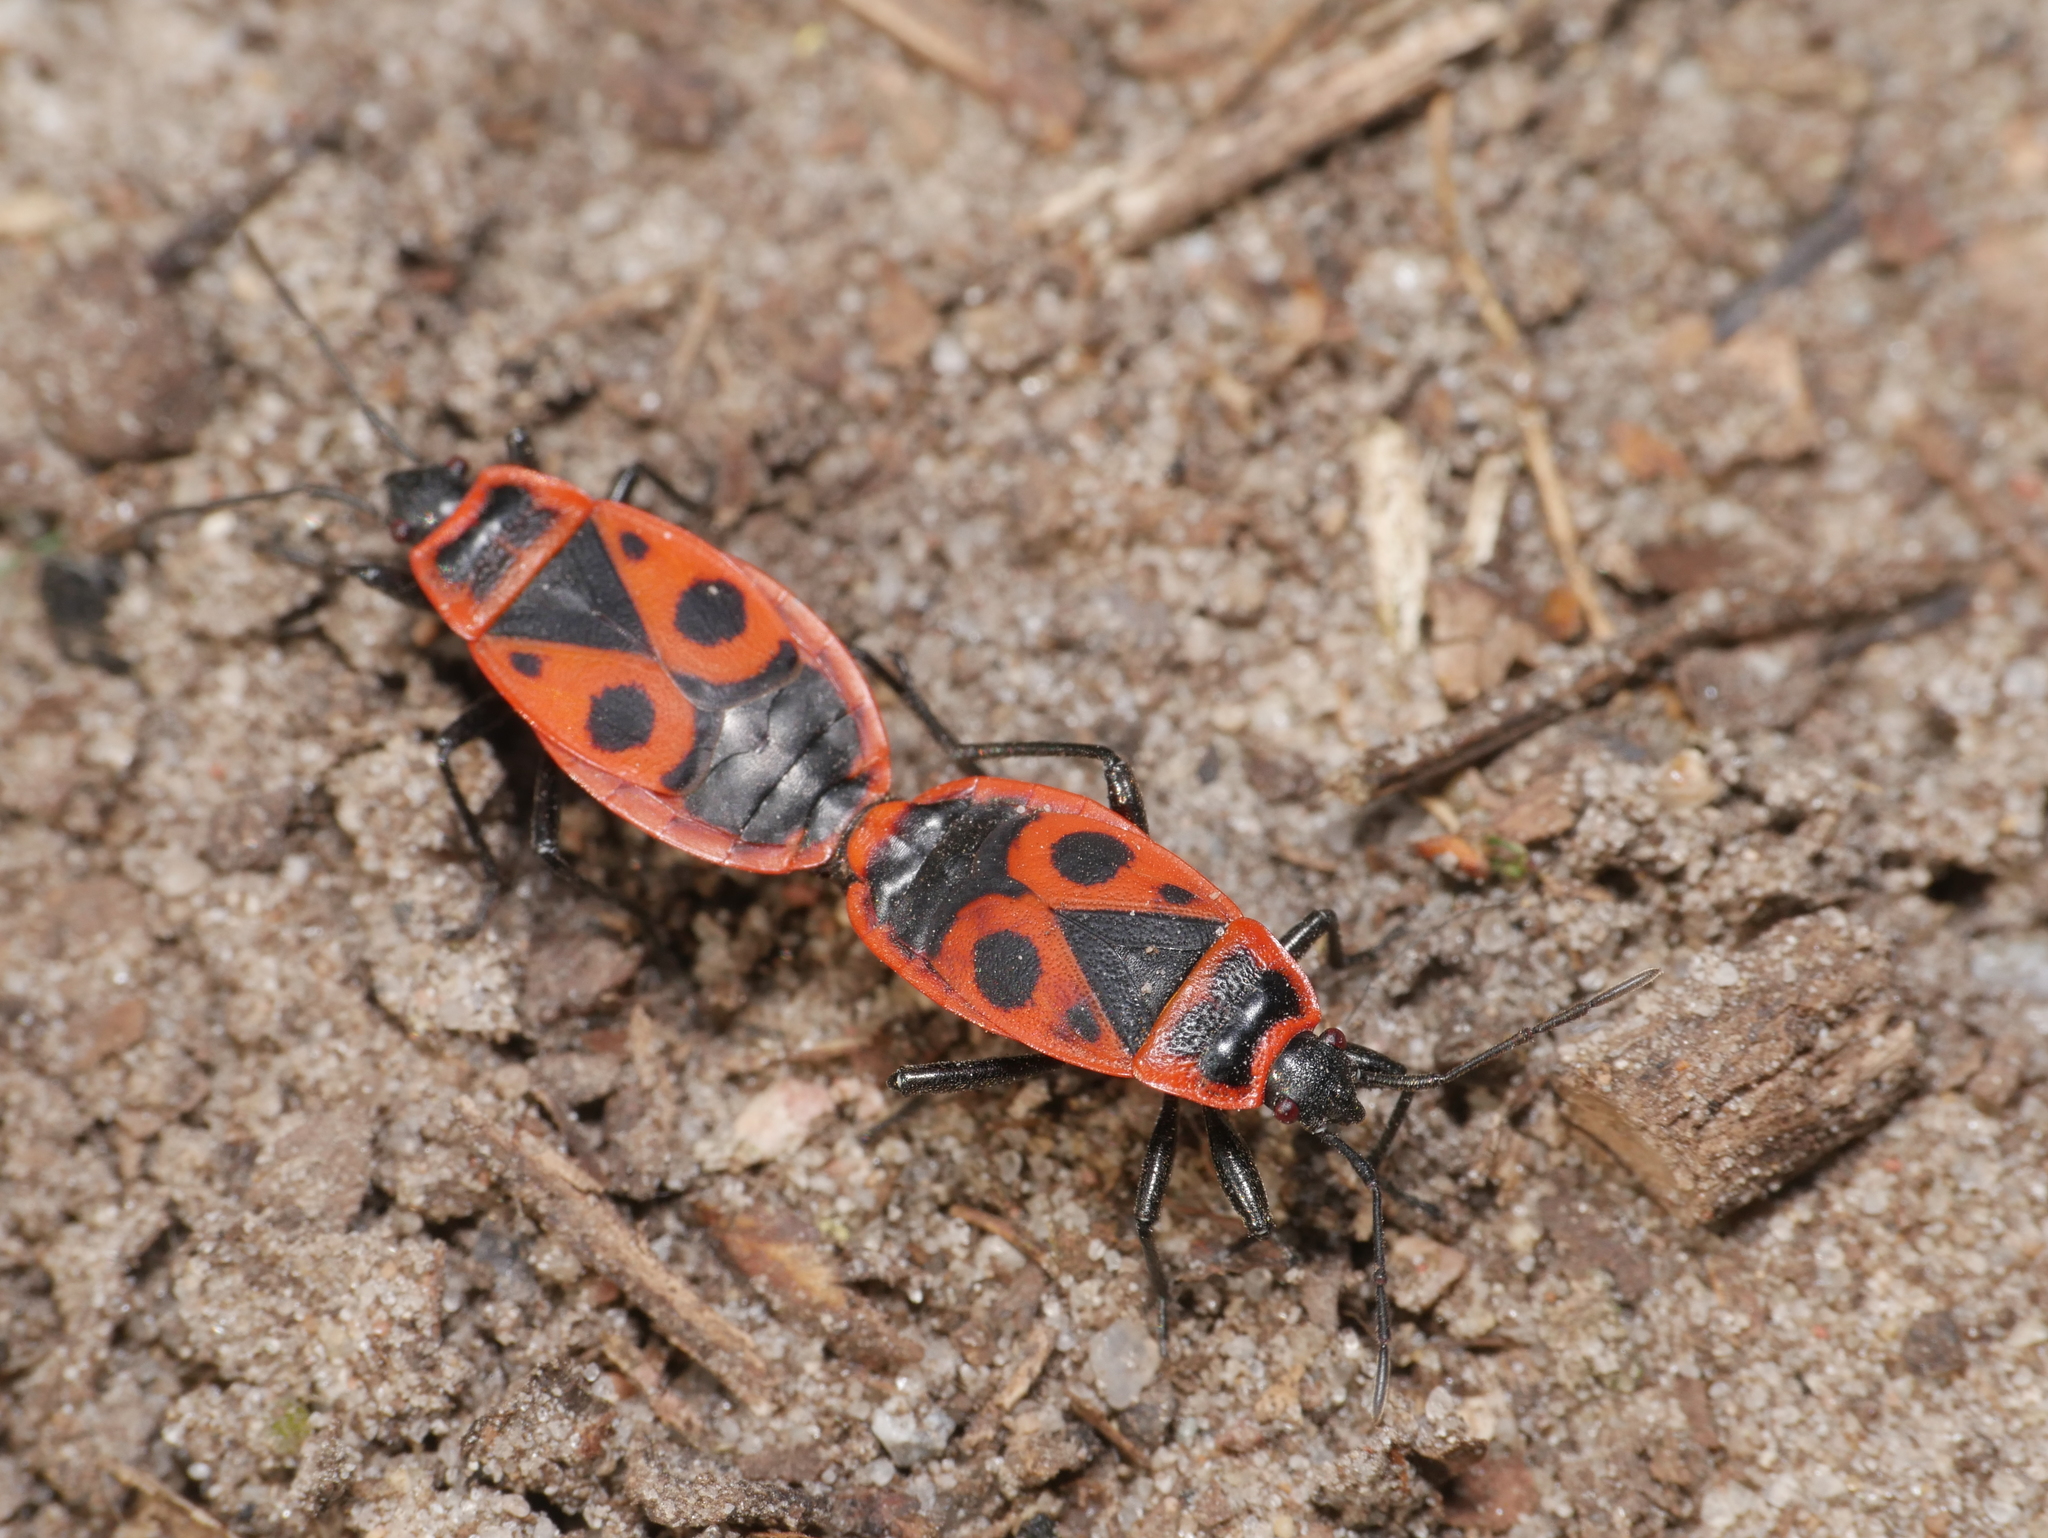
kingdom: Animalia
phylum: Arthropoda
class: Insecta
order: Hemiptera
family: Pyrrhocoridae
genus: Pyrrhocoris
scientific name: Pyrrhocoris apterus
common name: Firebug
